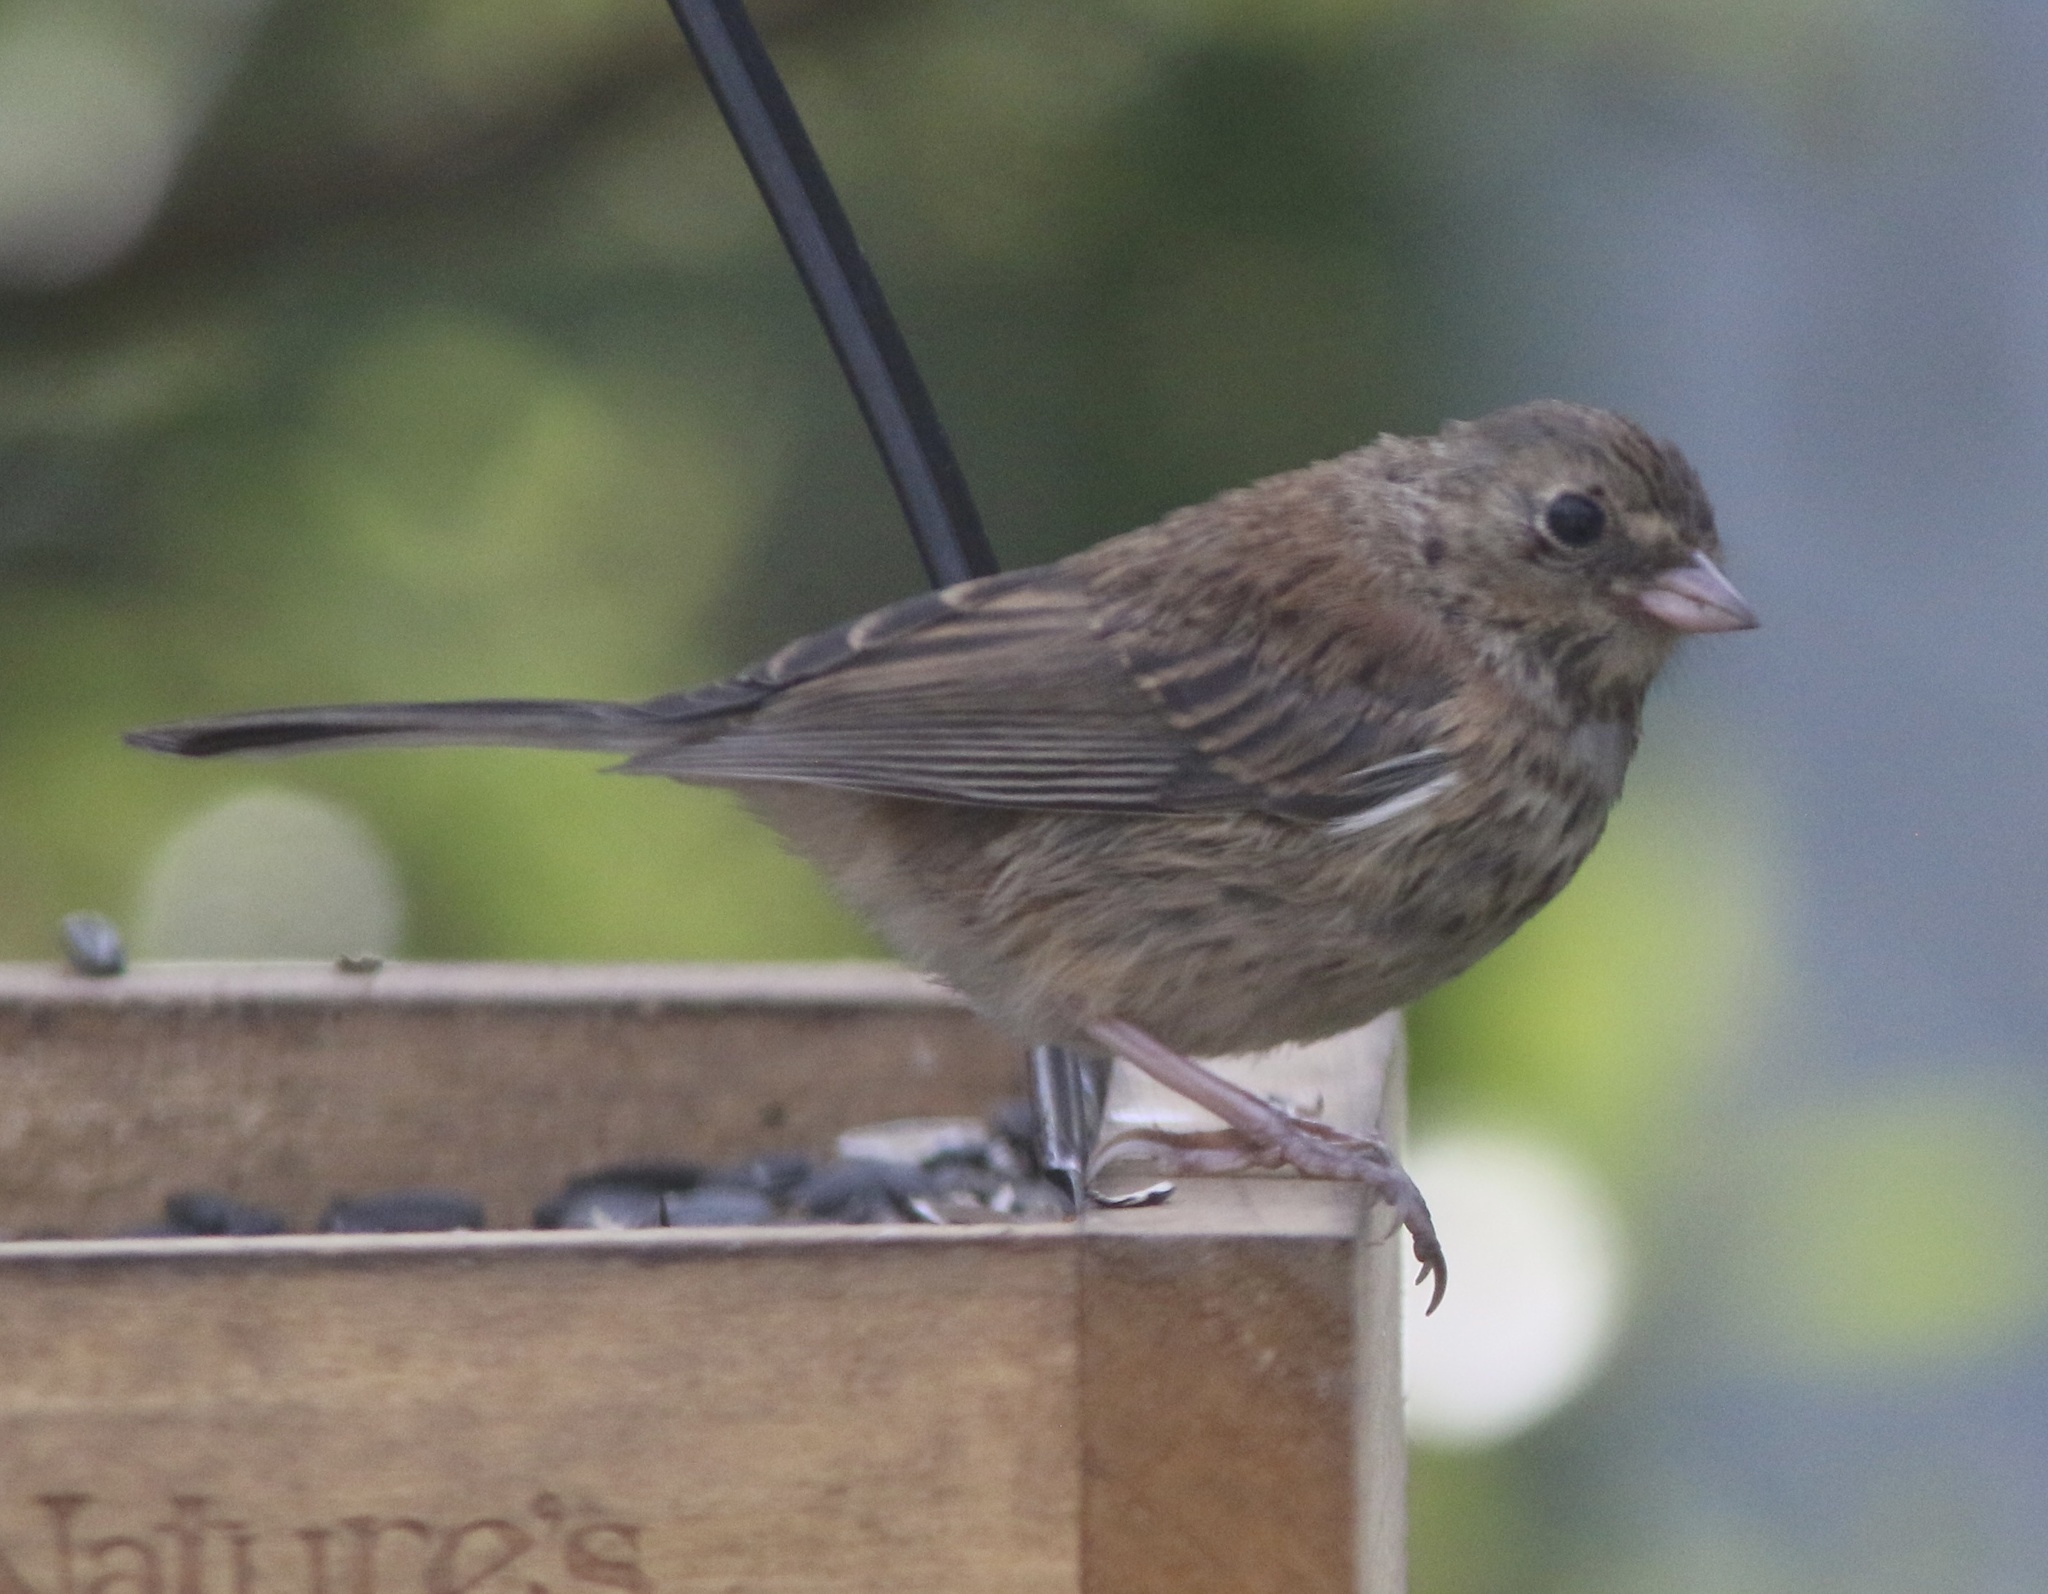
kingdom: Animalia
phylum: Chordata
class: Aves
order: Passeriformes
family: Passerellidae
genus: Junco
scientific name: Junco hyemalis
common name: Dark-eyed junco
